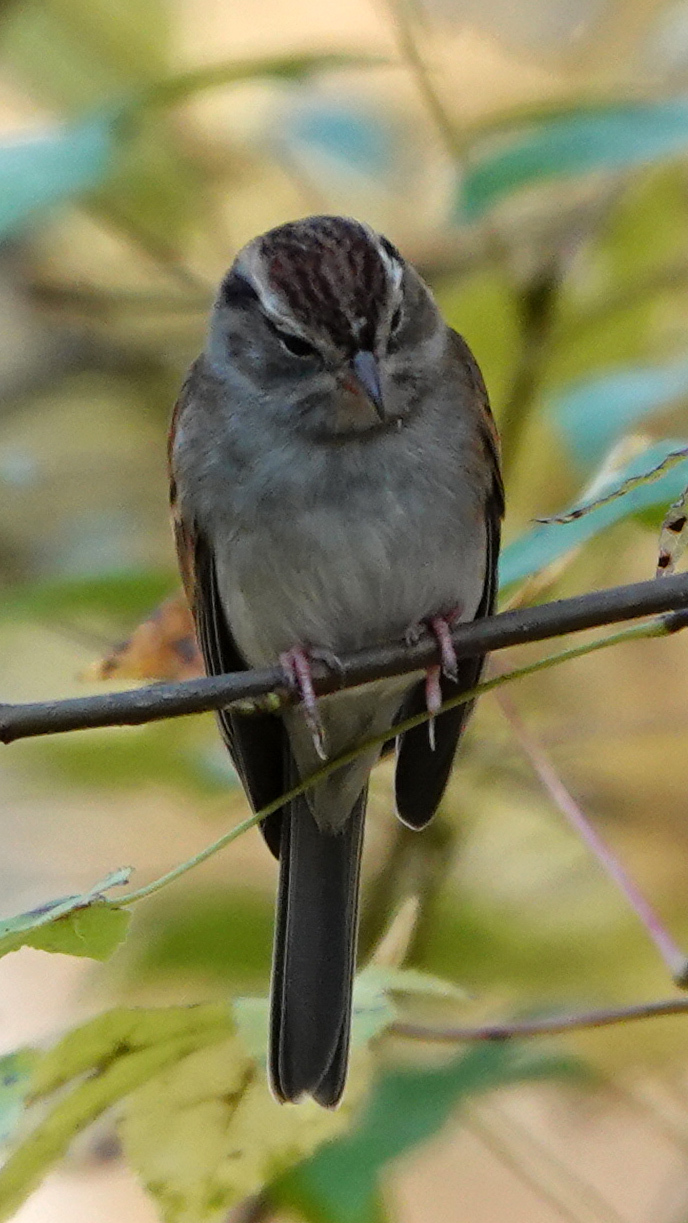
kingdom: Animalia
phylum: Chordata
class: Aves
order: Passeriformes
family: Passerellidae
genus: Spizella
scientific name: Spizella passerina
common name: Chipping sparrow
